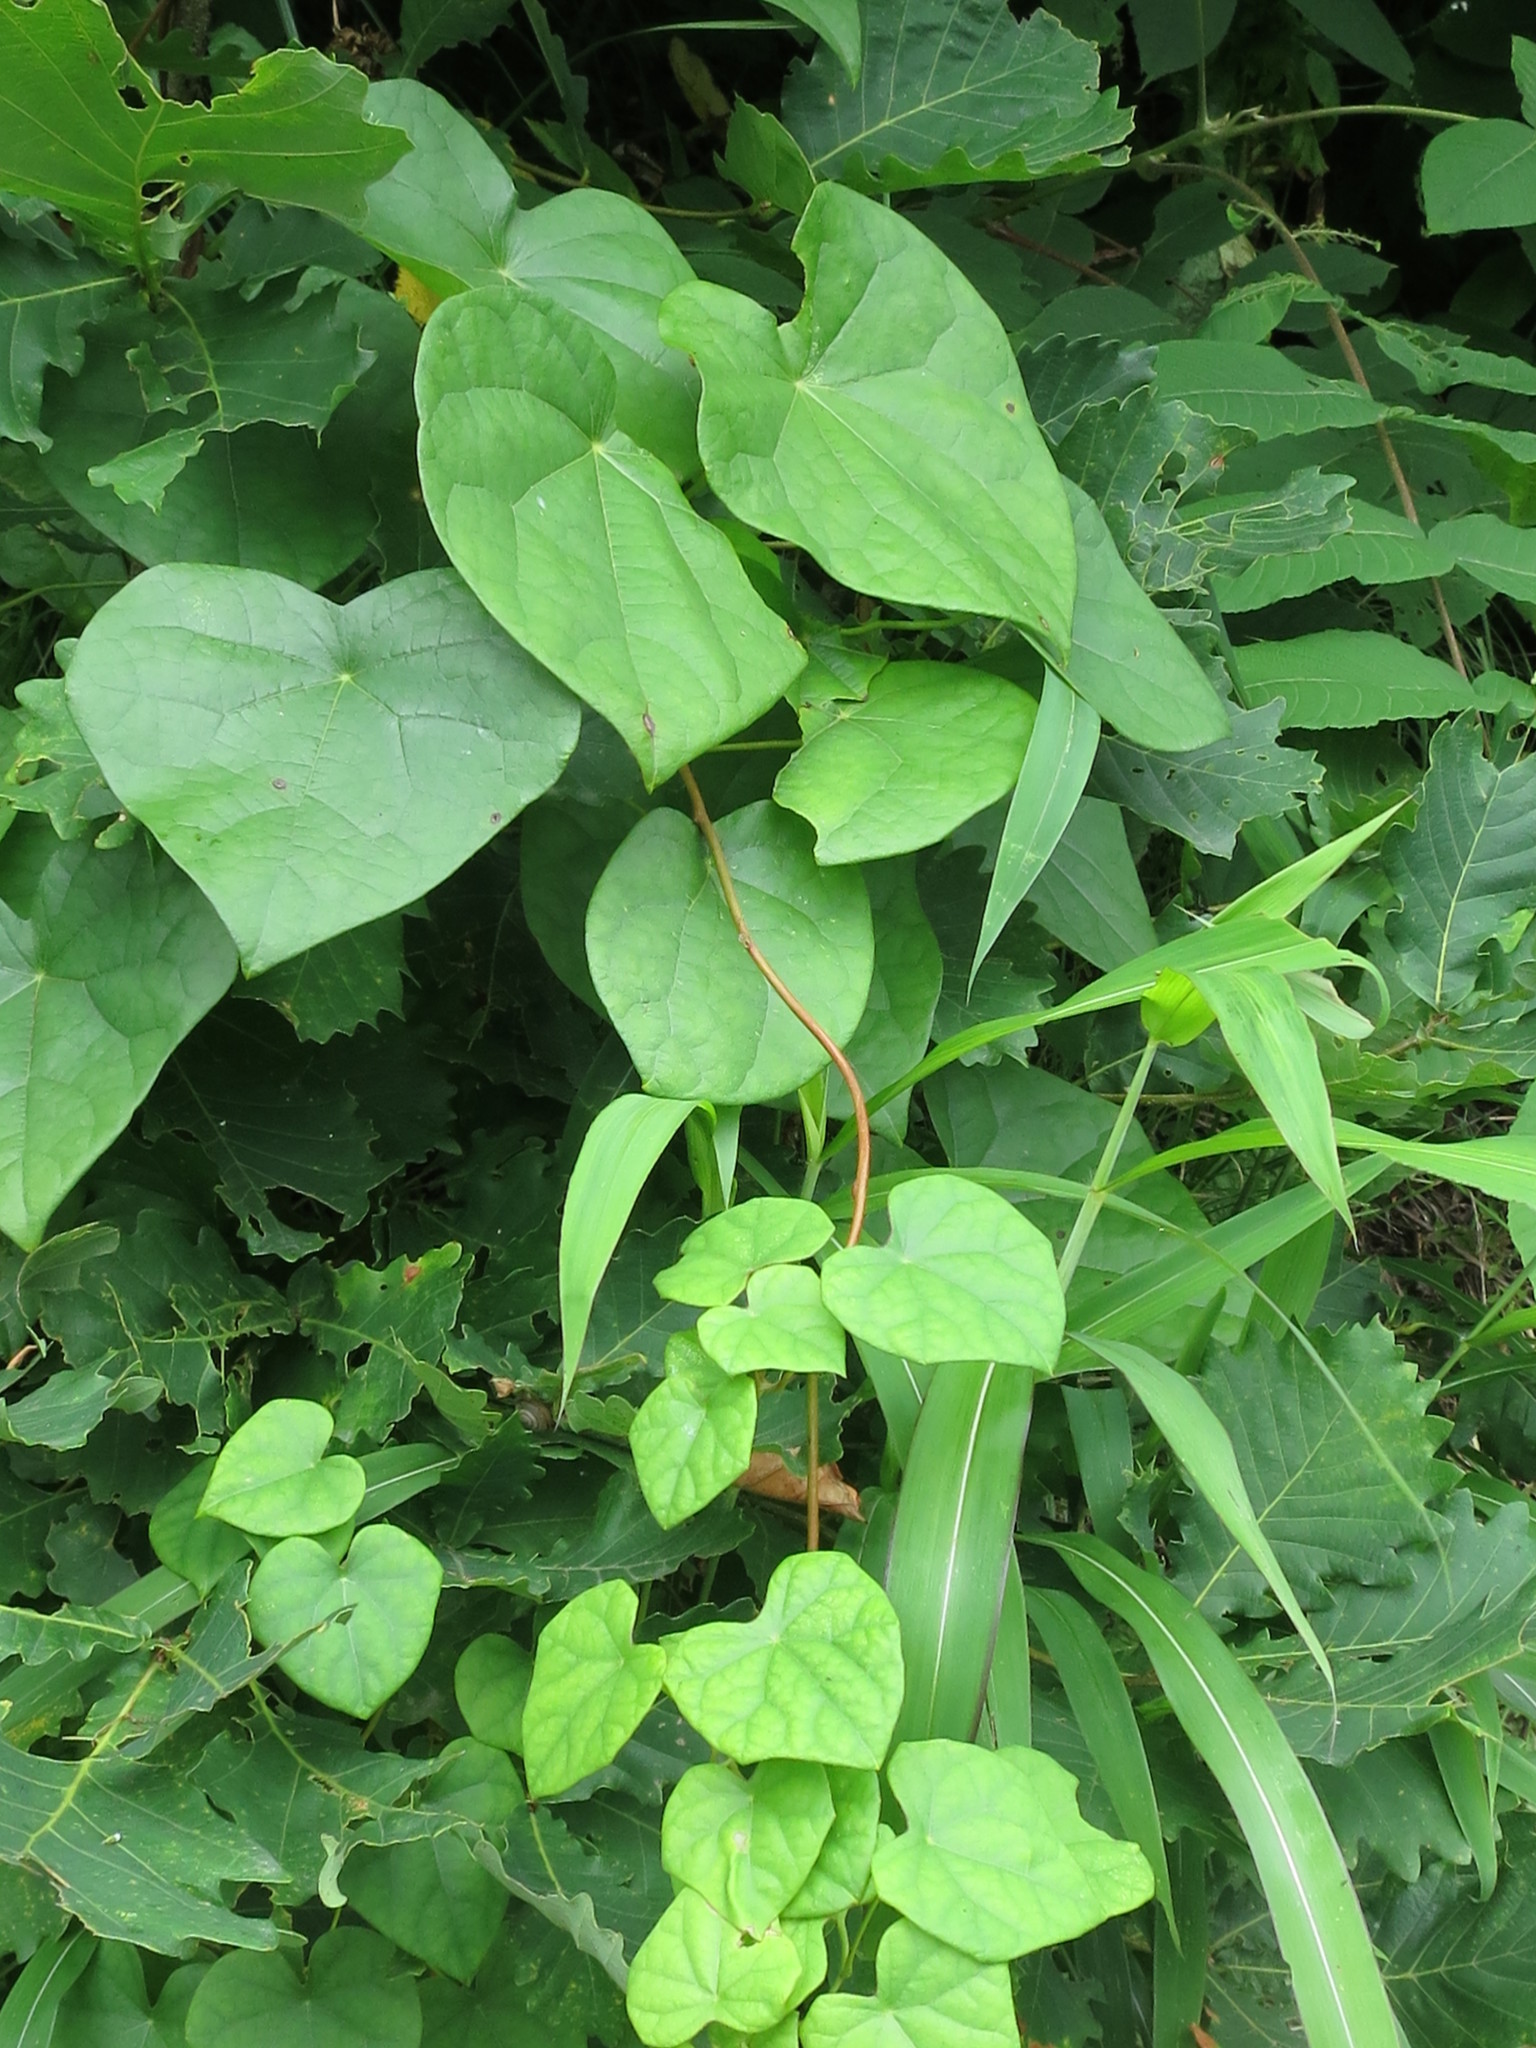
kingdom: Plantae
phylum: Tracheophyta
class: Magnoliopsida
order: Ranunculales
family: Menispermaceae
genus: Menispermum
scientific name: Menispermum dauricum
